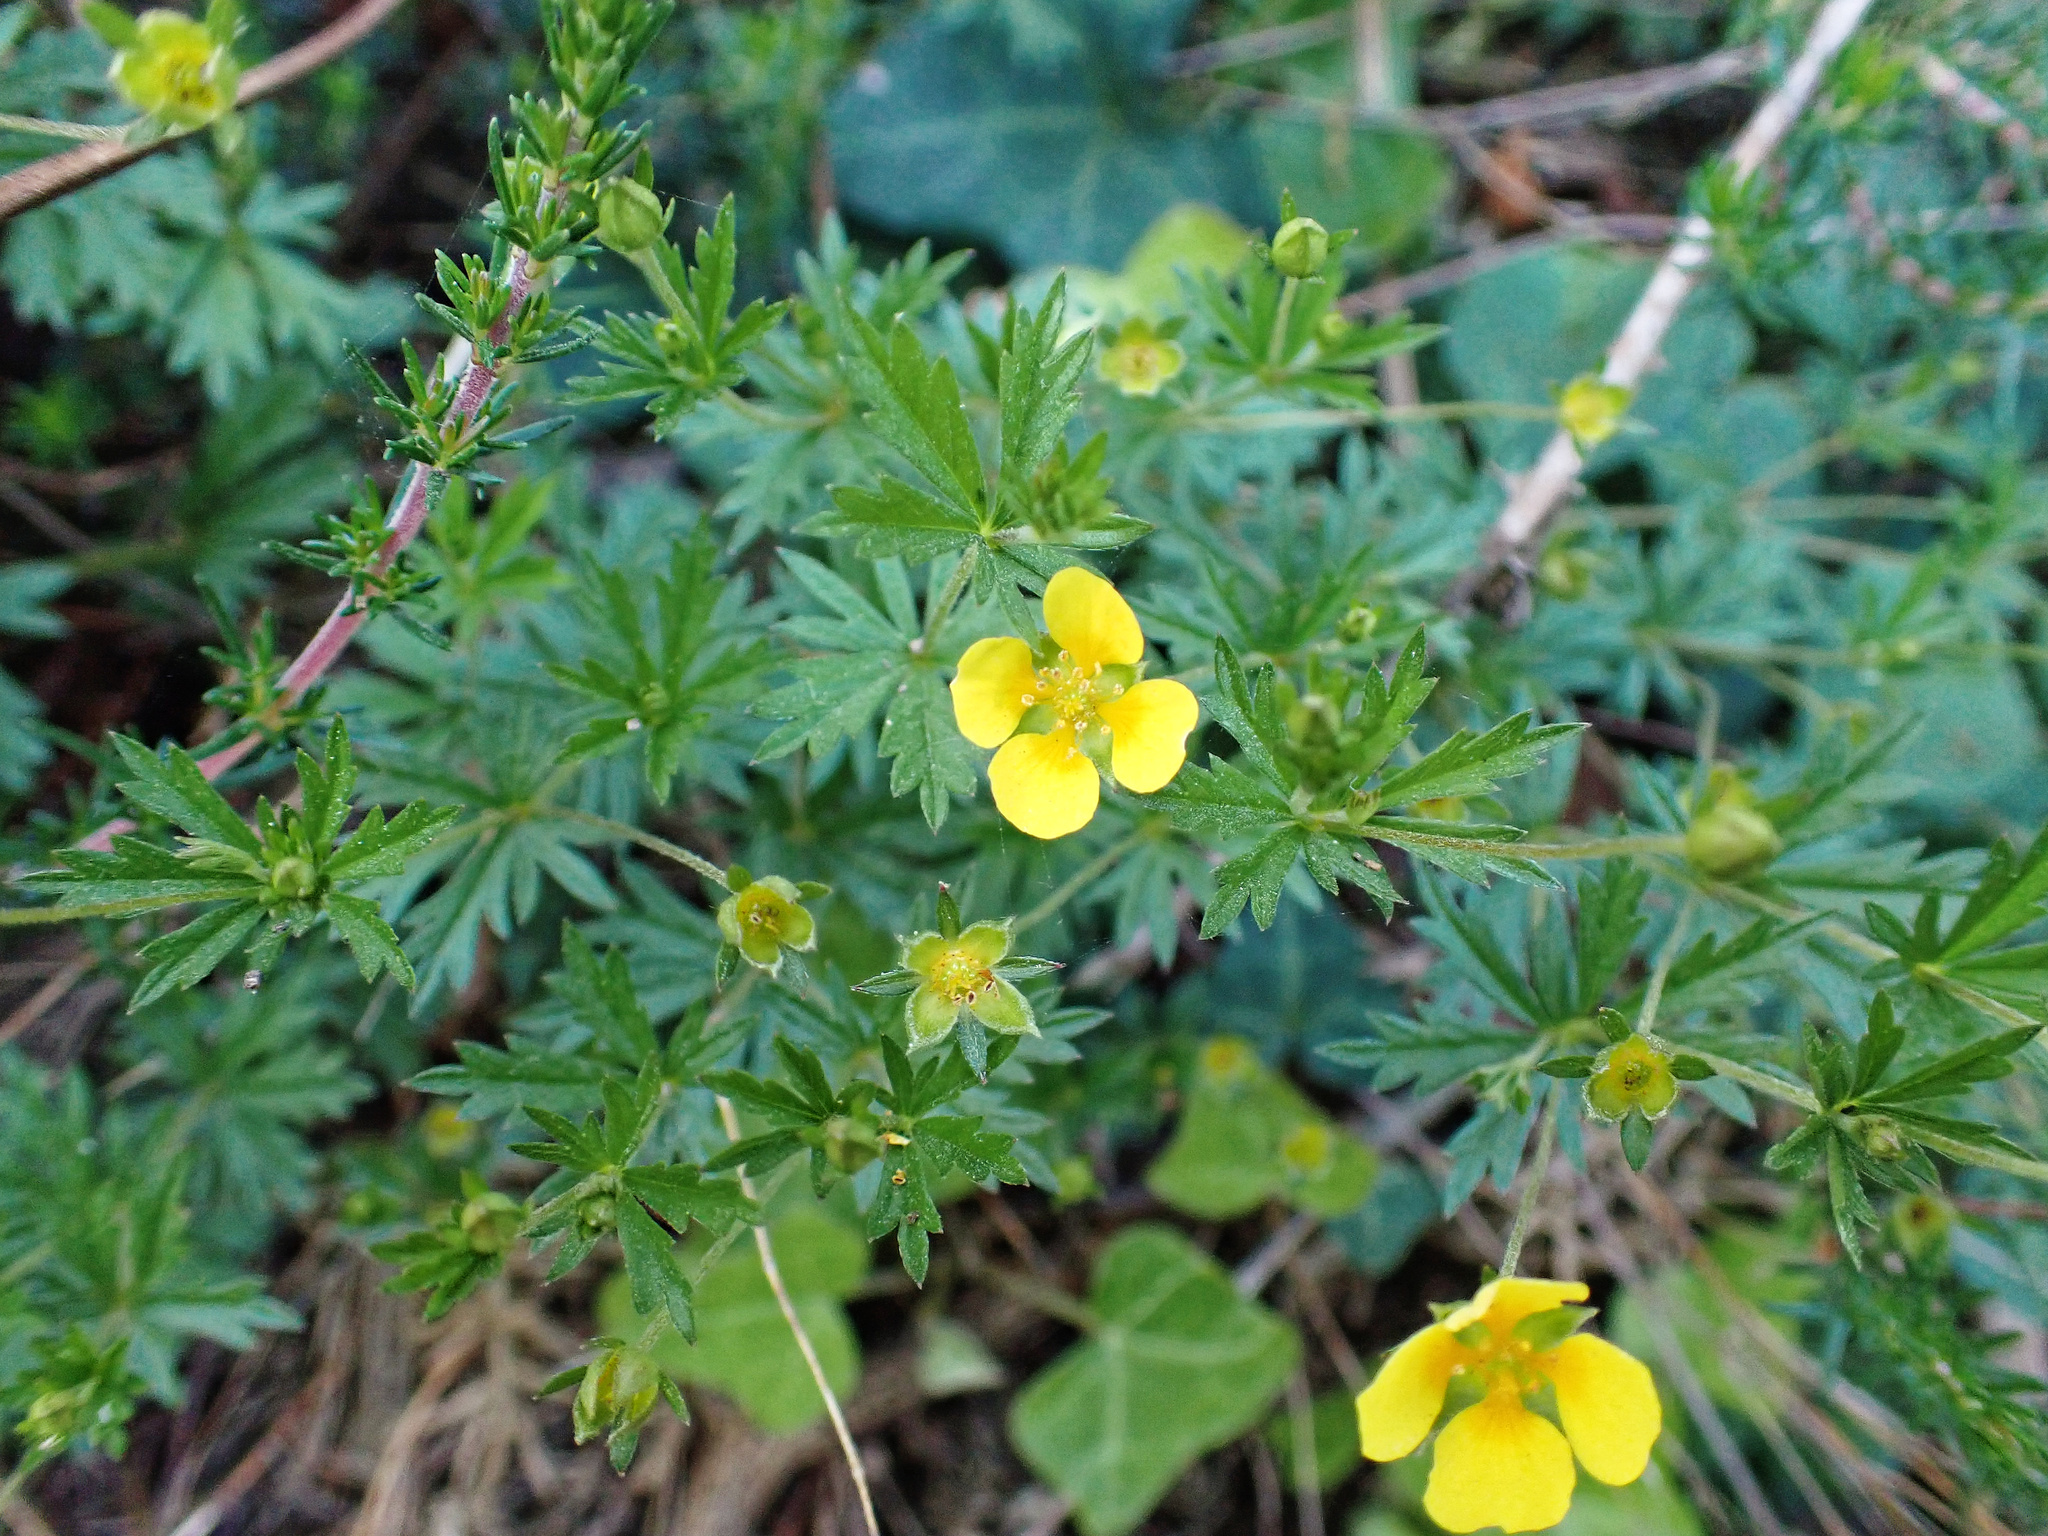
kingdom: Plantae
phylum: Tracheophyta
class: Magnoliopsida
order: Rosales
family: Rosaceae
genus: Potentilla
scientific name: Potentilla erecta
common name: Tormentil
